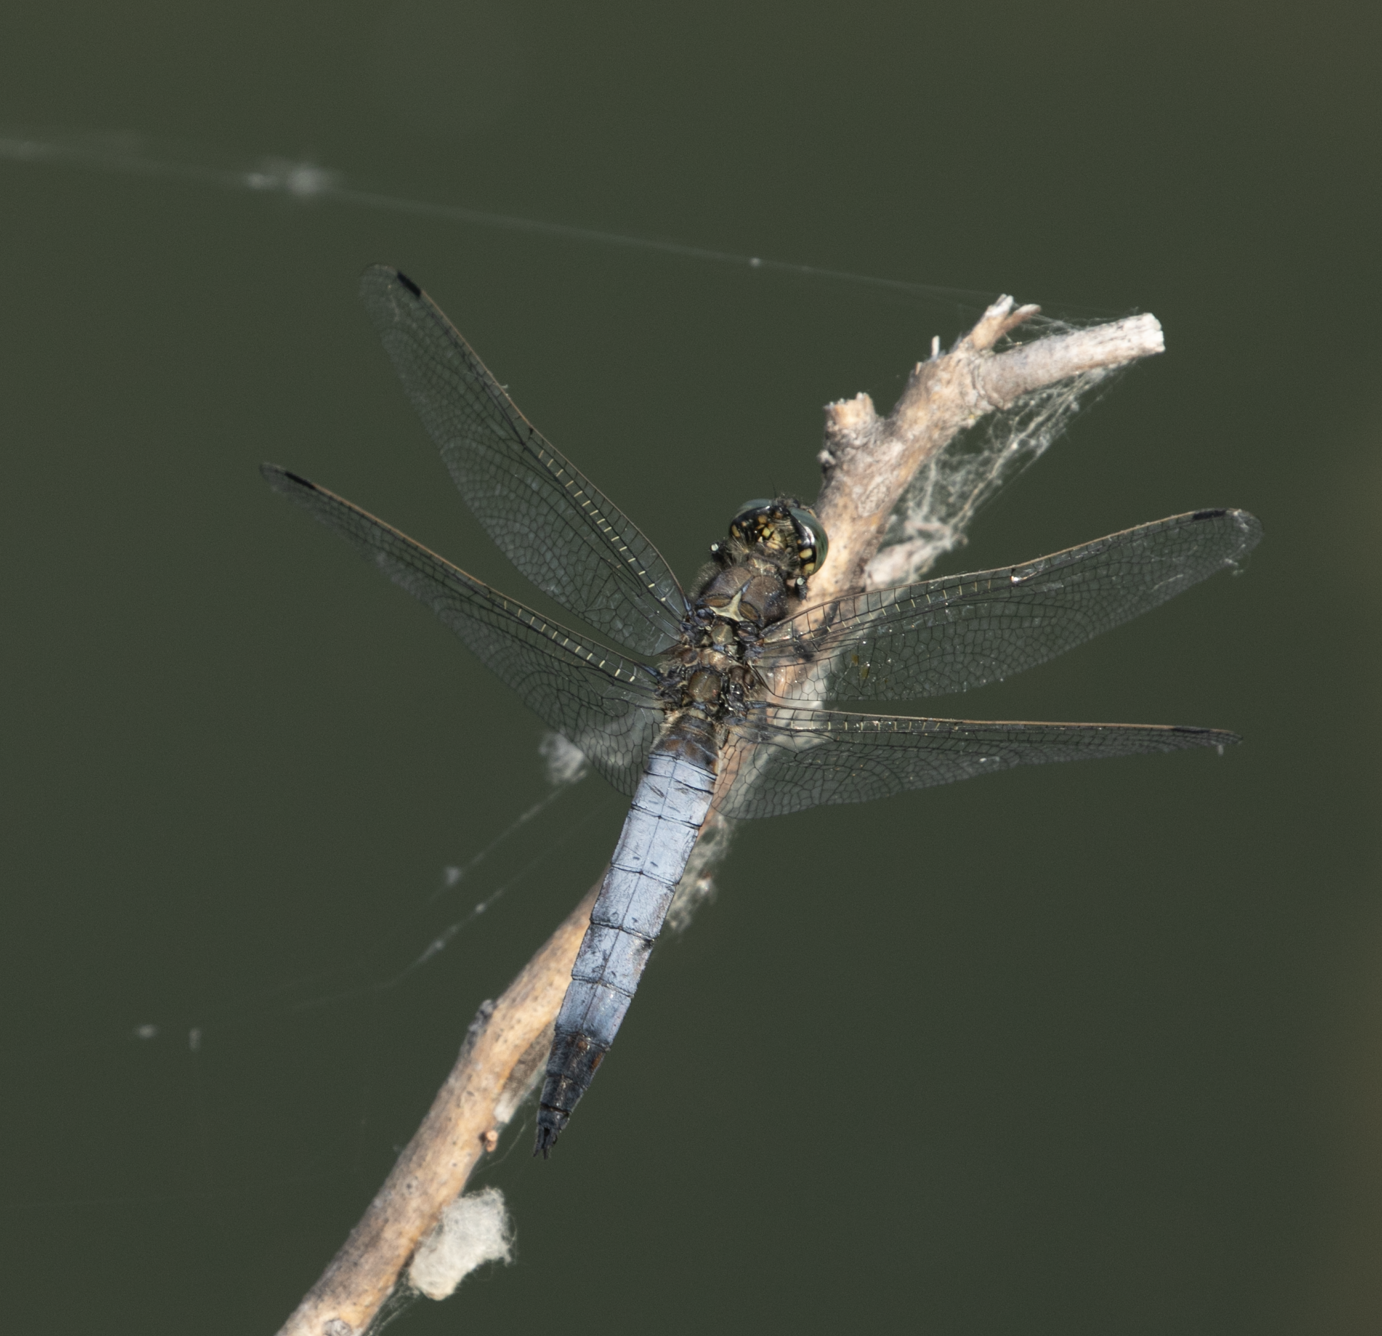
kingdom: Animalia
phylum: Arthropoda
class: Insecta
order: Odonata
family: Libellulidae
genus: Orthetrum
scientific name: Orthetrum cancellatum
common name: Black-tailed skimmer
